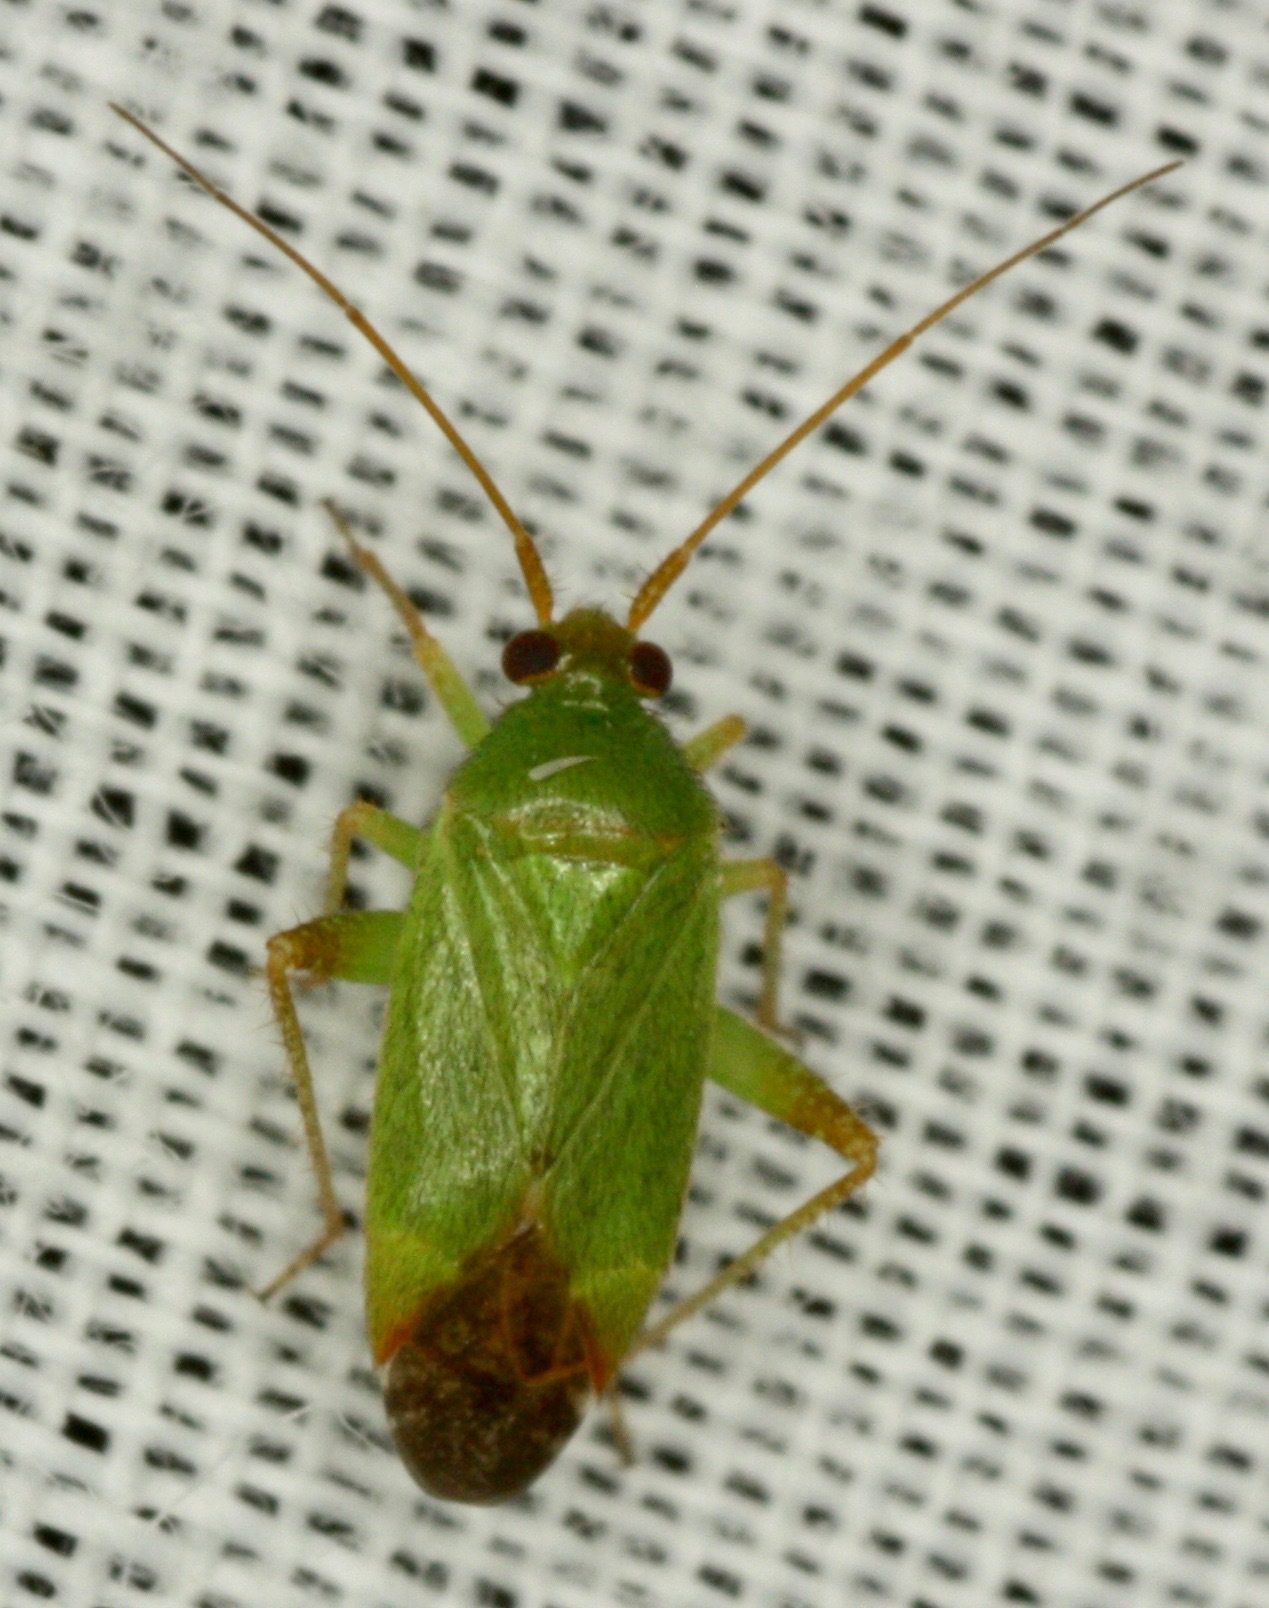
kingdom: Animalia
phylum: Arthropoda
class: Insecta
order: Hemiptera
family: Miridae
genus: Phytocoris
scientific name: Phytocoris vanduzeei
